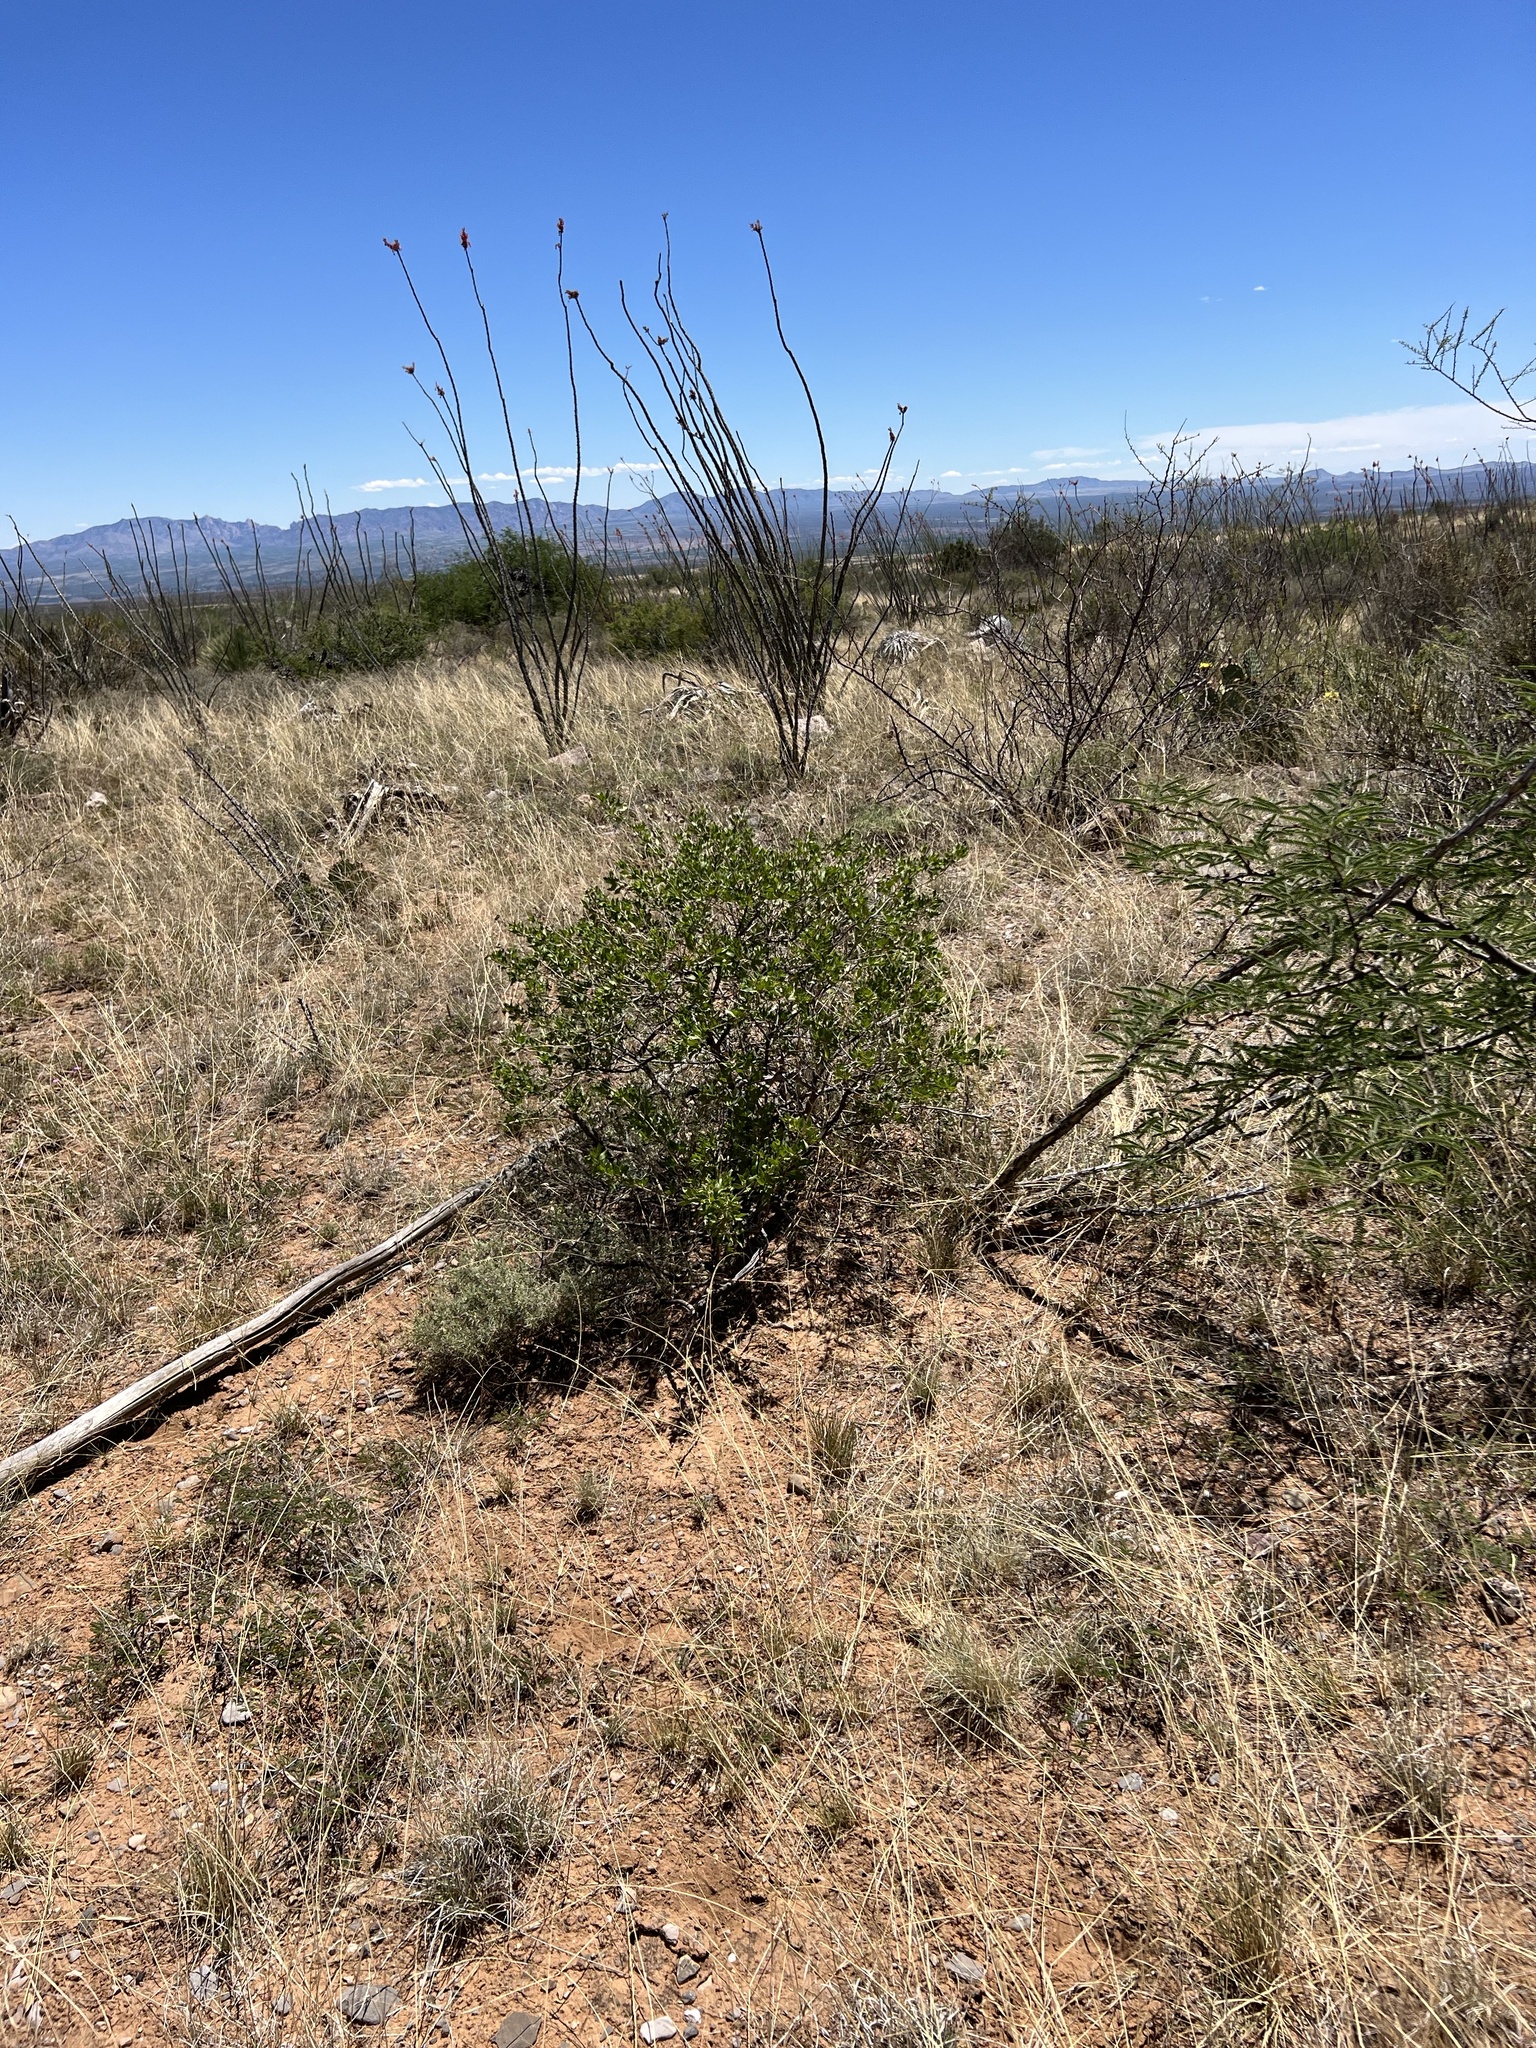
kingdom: Plantae
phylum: Tracheophyta
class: Magnoliopsida
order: Asterales
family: Asteraceae
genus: Flourensia
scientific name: Flourensia cernua
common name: Varnishbush
